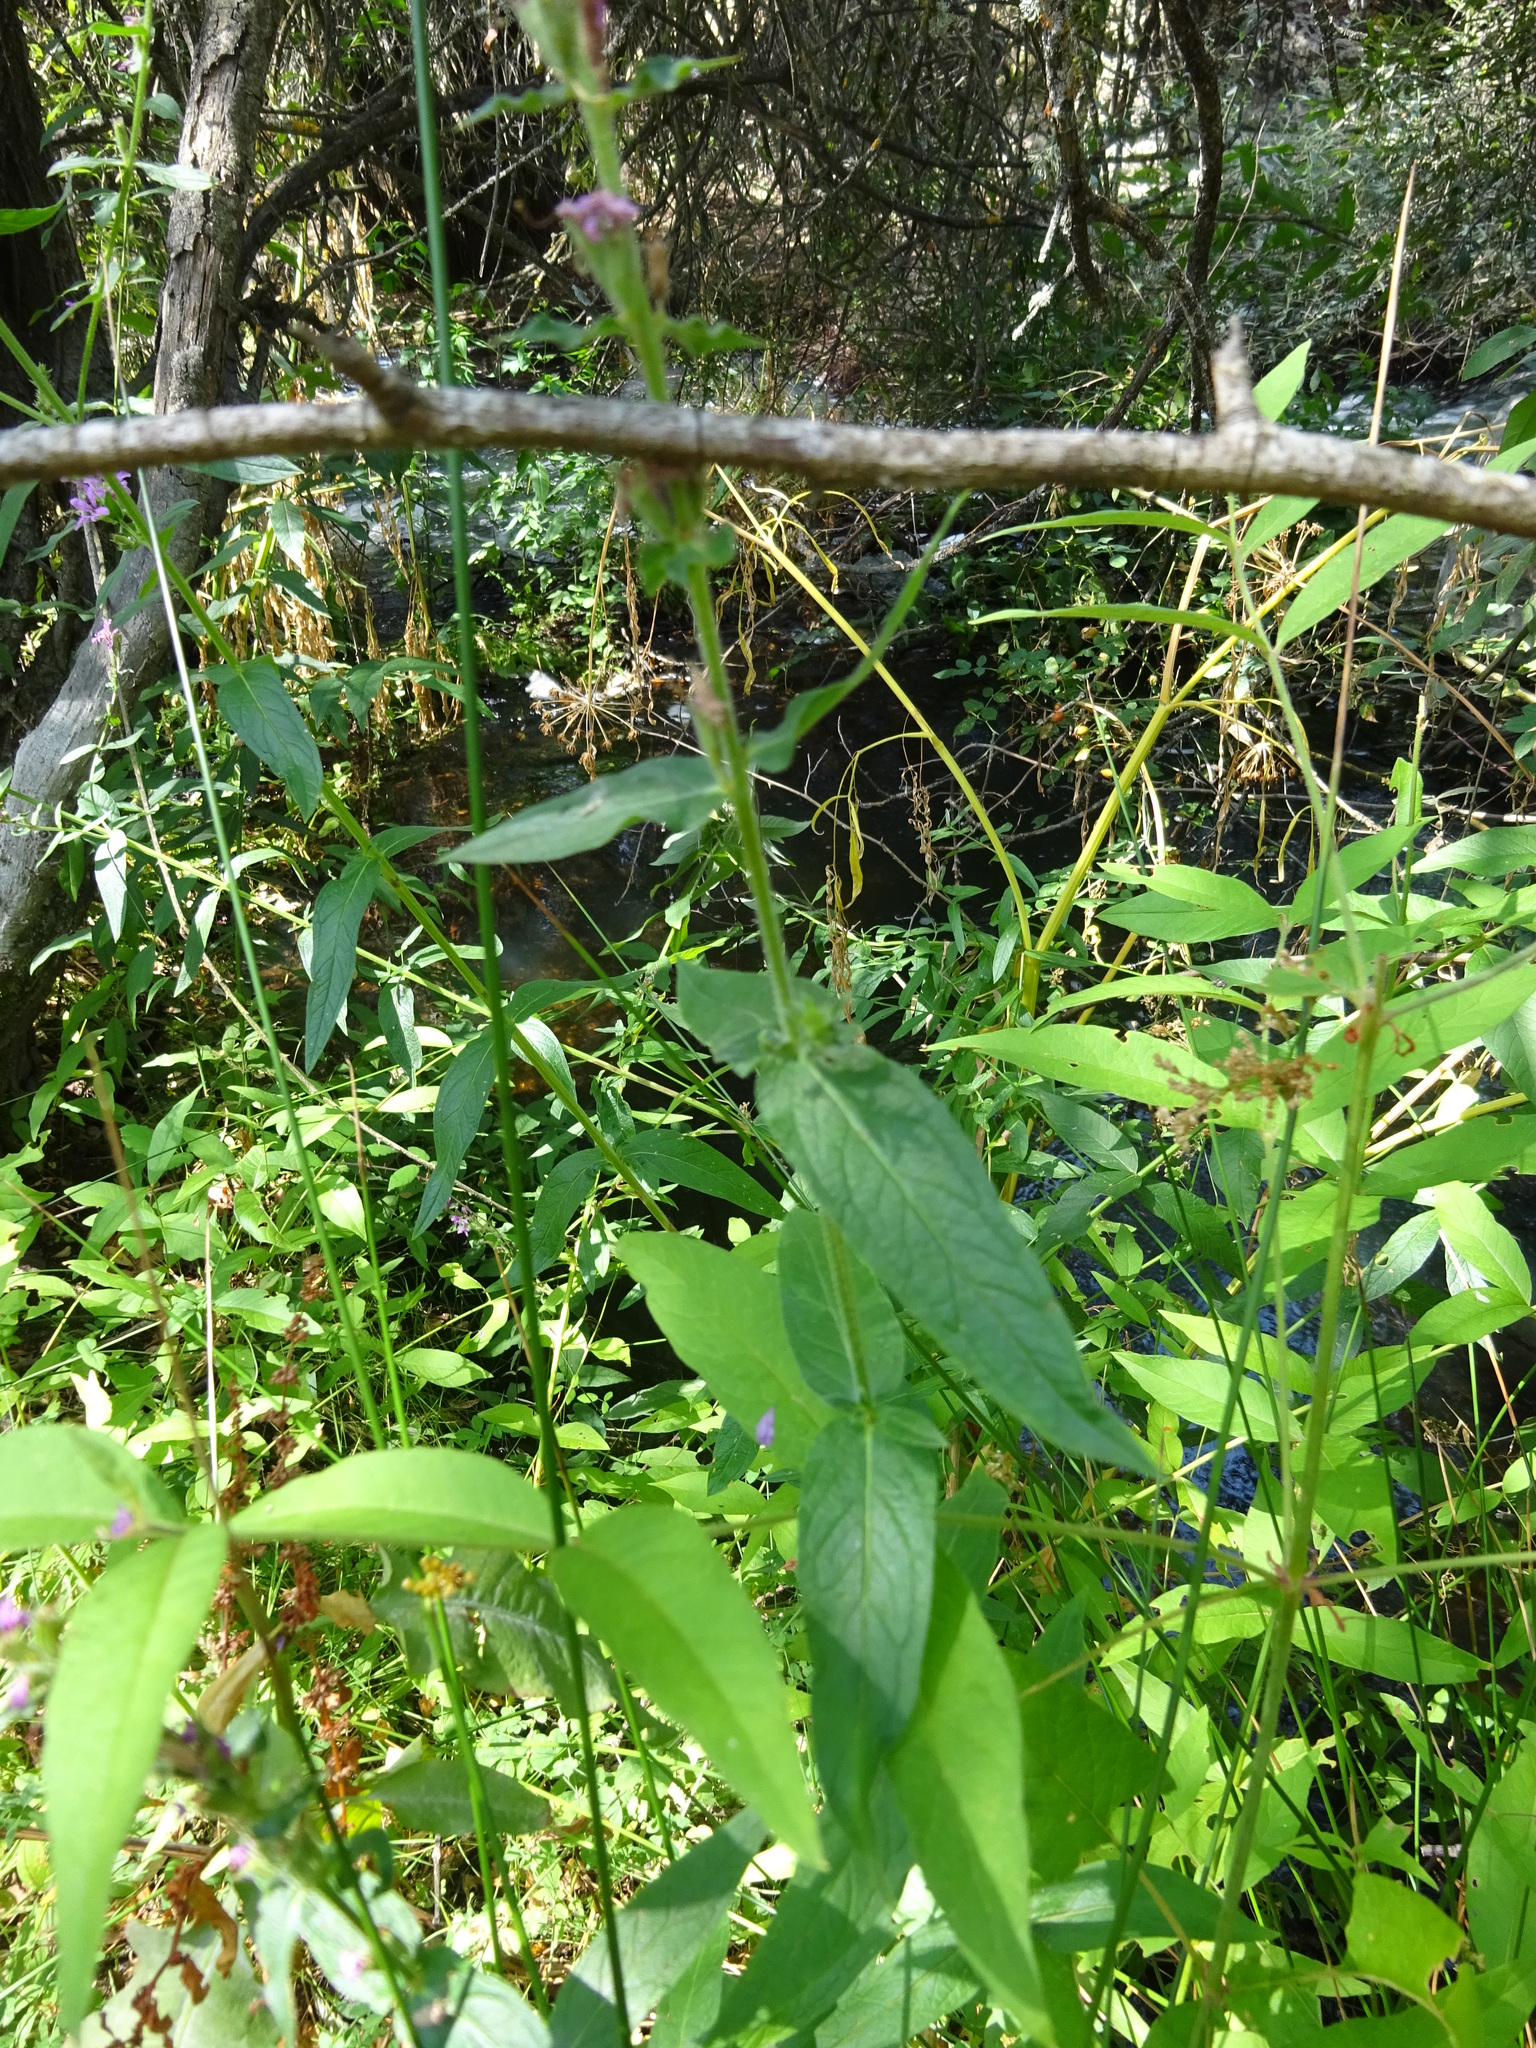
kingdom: Plantae
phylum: Tracheophyta
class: Magnoliopsida
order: Myrtales
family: Lythraceae
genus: Lythrum
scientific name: Lythrum salicaria
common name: Purple loosestrife
